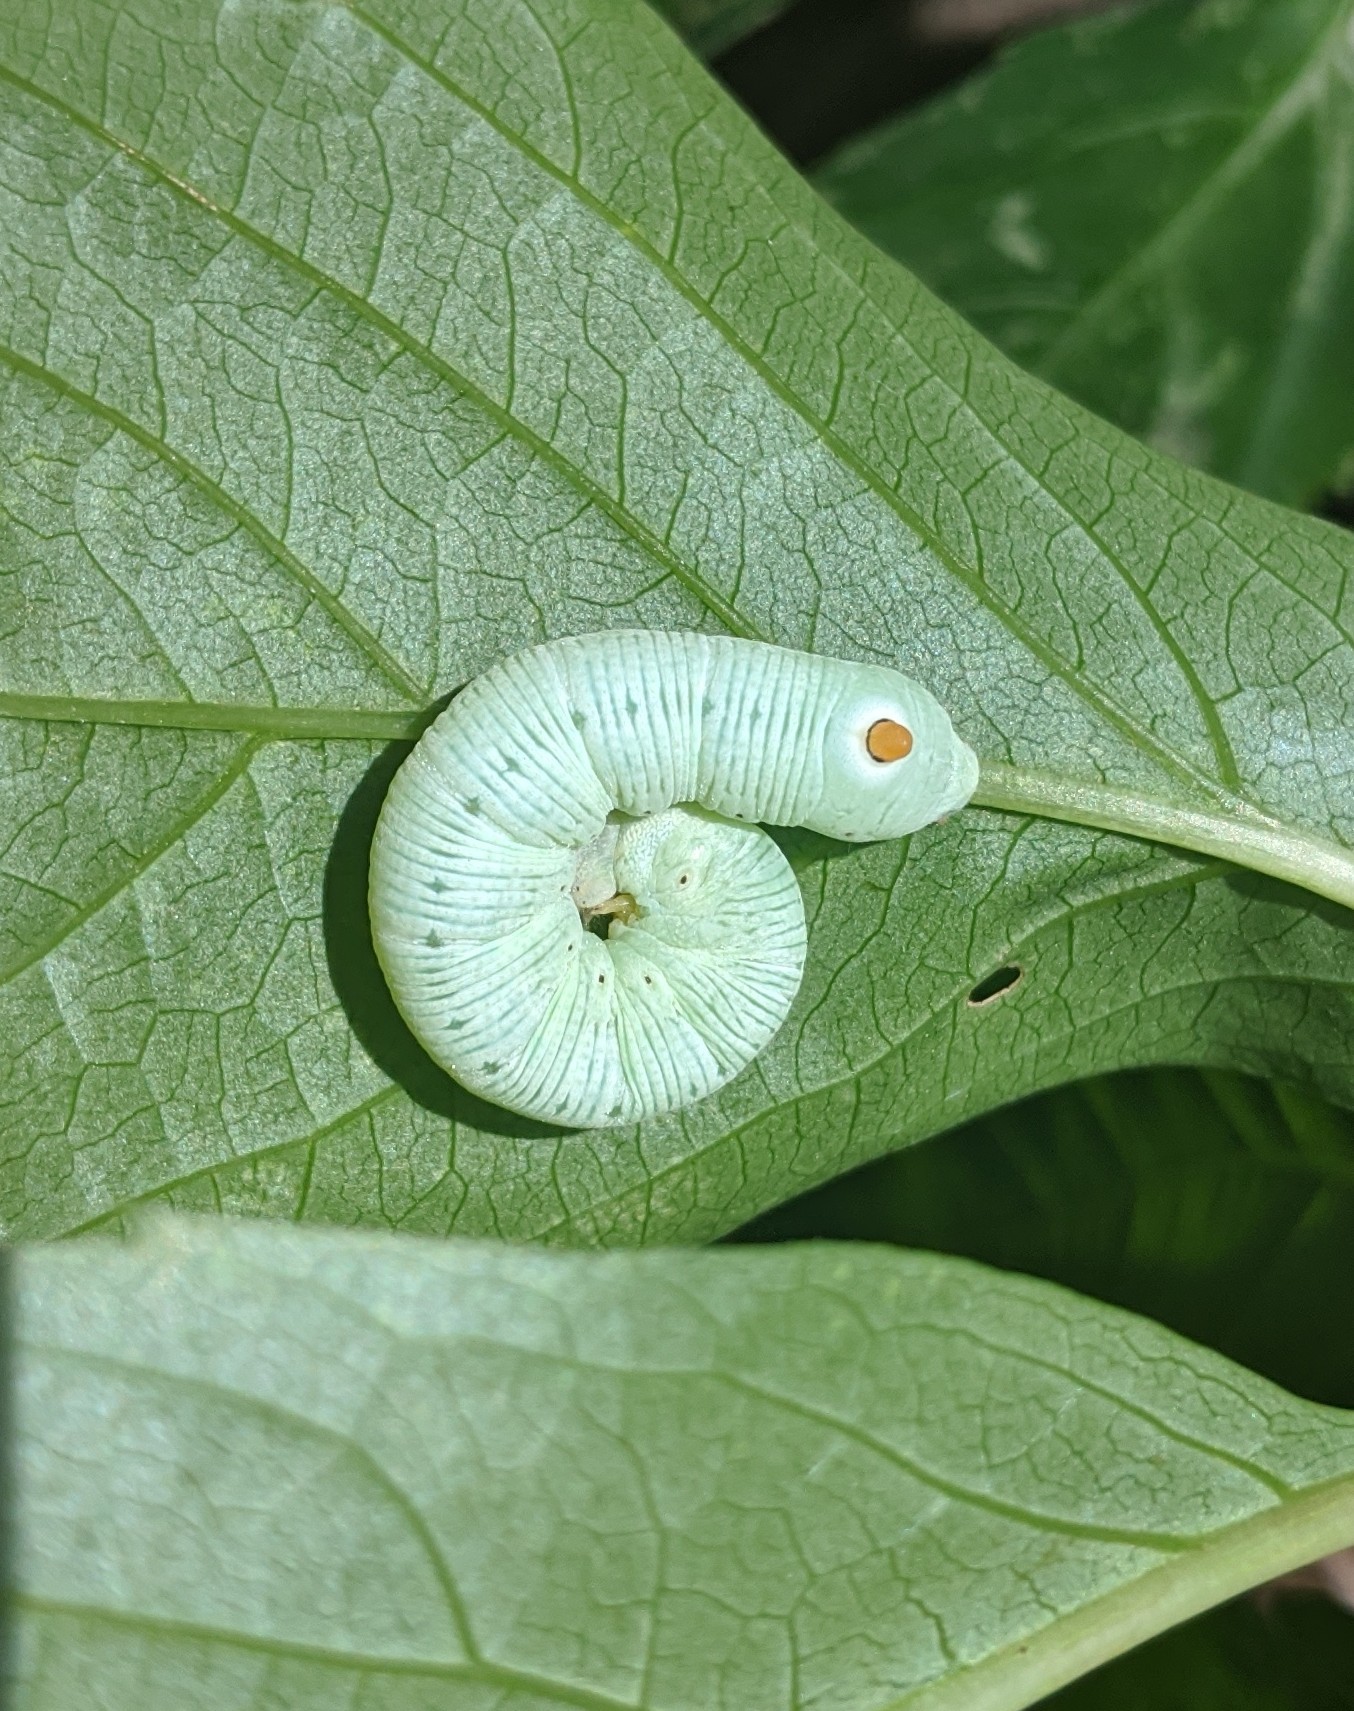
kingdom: Animalia
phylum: Arthropoda
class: Insecta
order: Lepidoptera
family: Sphingidae
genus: Sphecodina
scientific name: Sphecodina abbottii
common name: Abbott's sphinx
